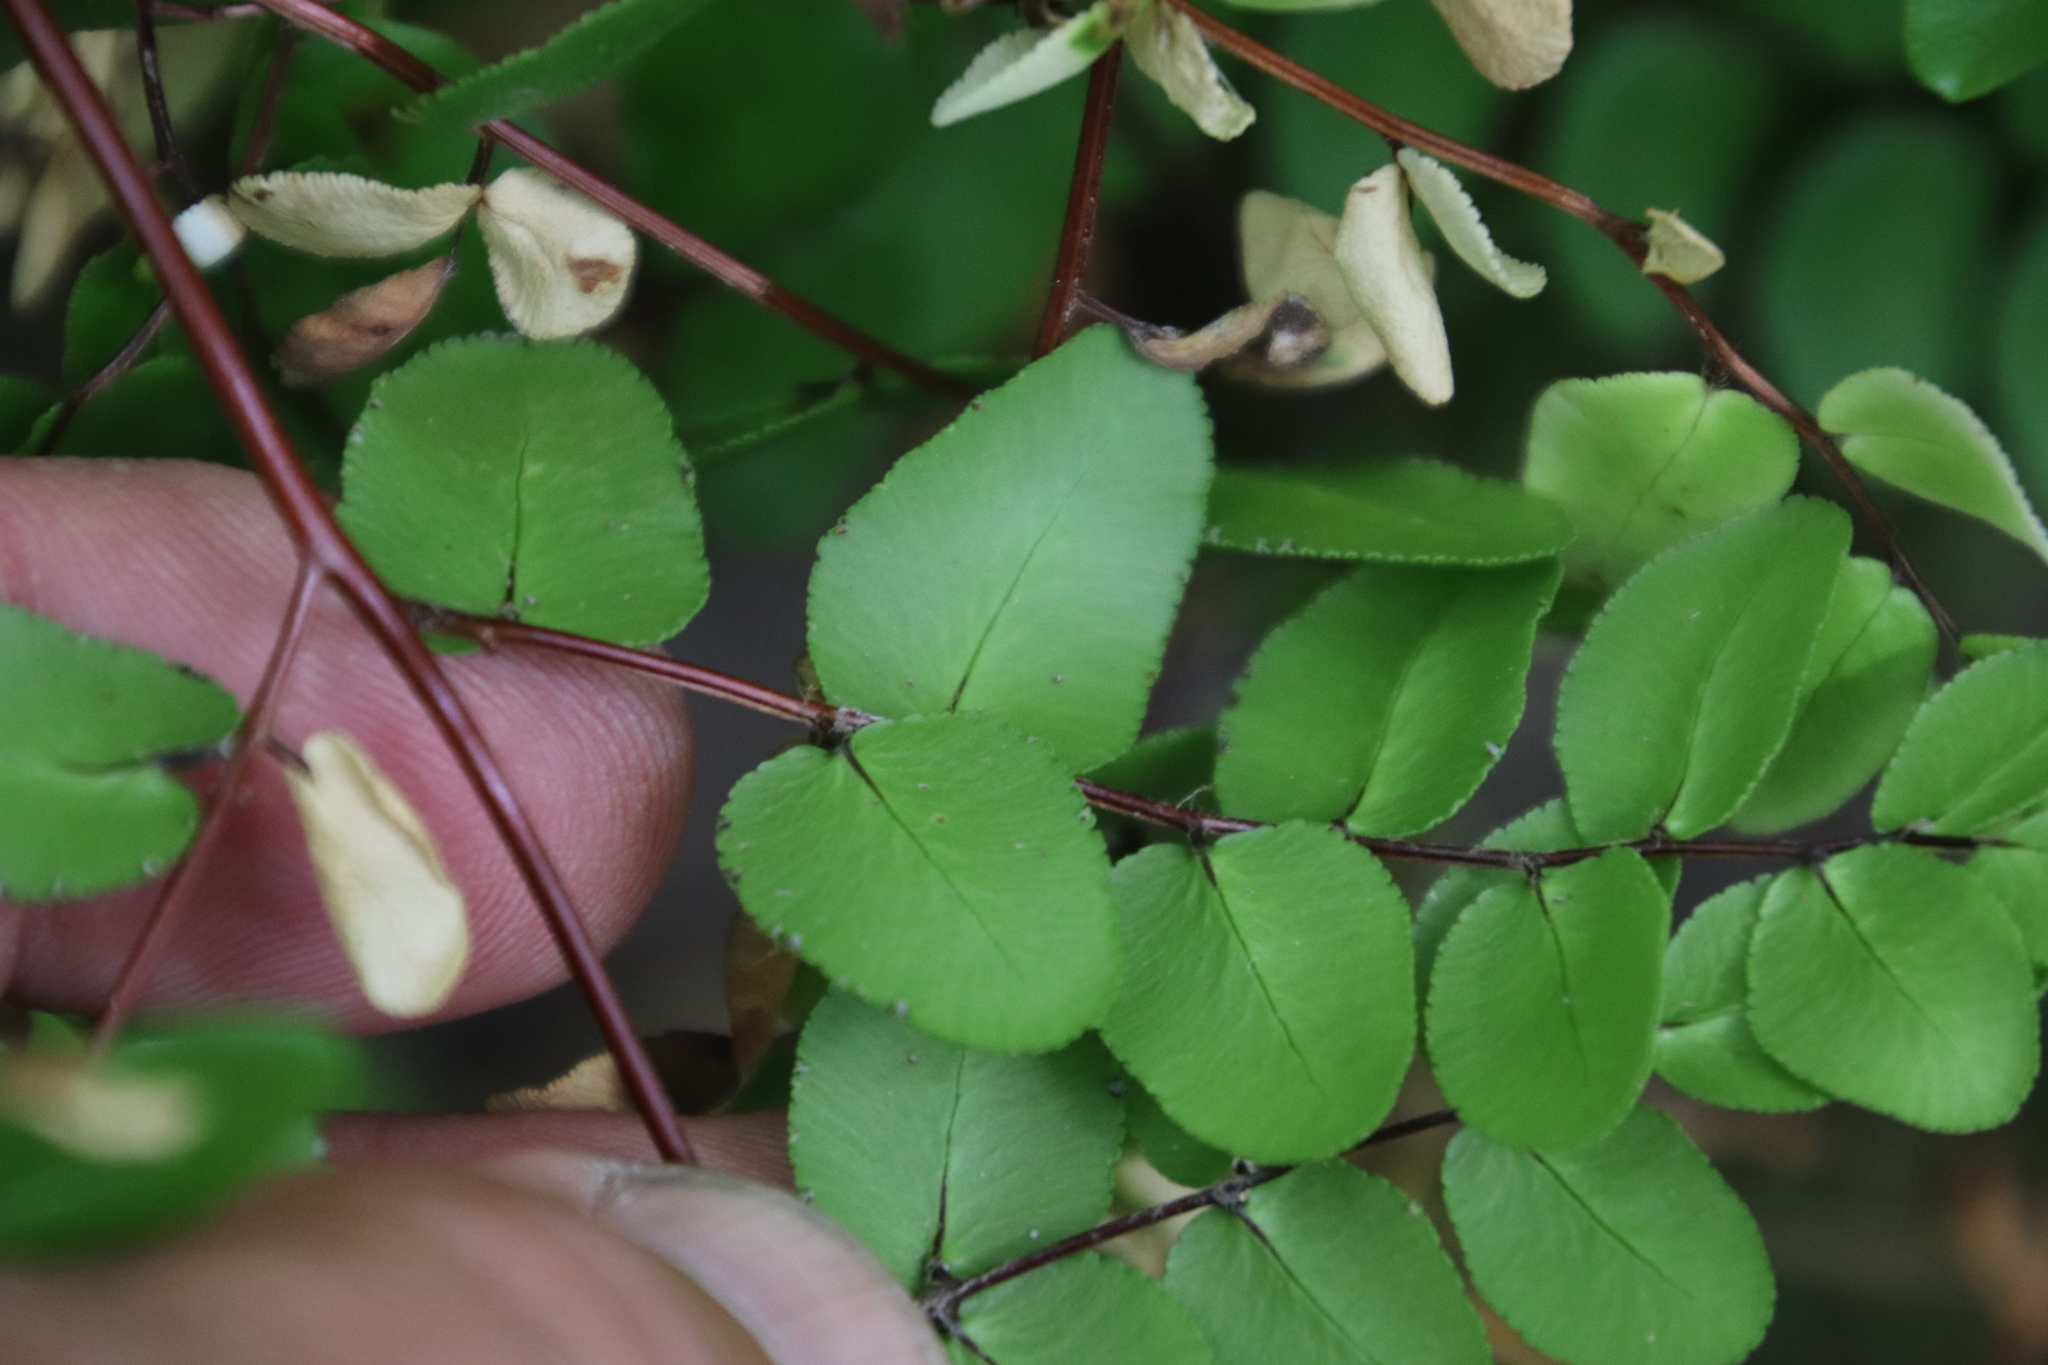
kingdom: Plantae
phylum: Tracheophyta
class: Polypodiopsida
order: Polypodiales
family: Pteridaceae
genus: Pellaea
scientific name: Pellaea pteroides
